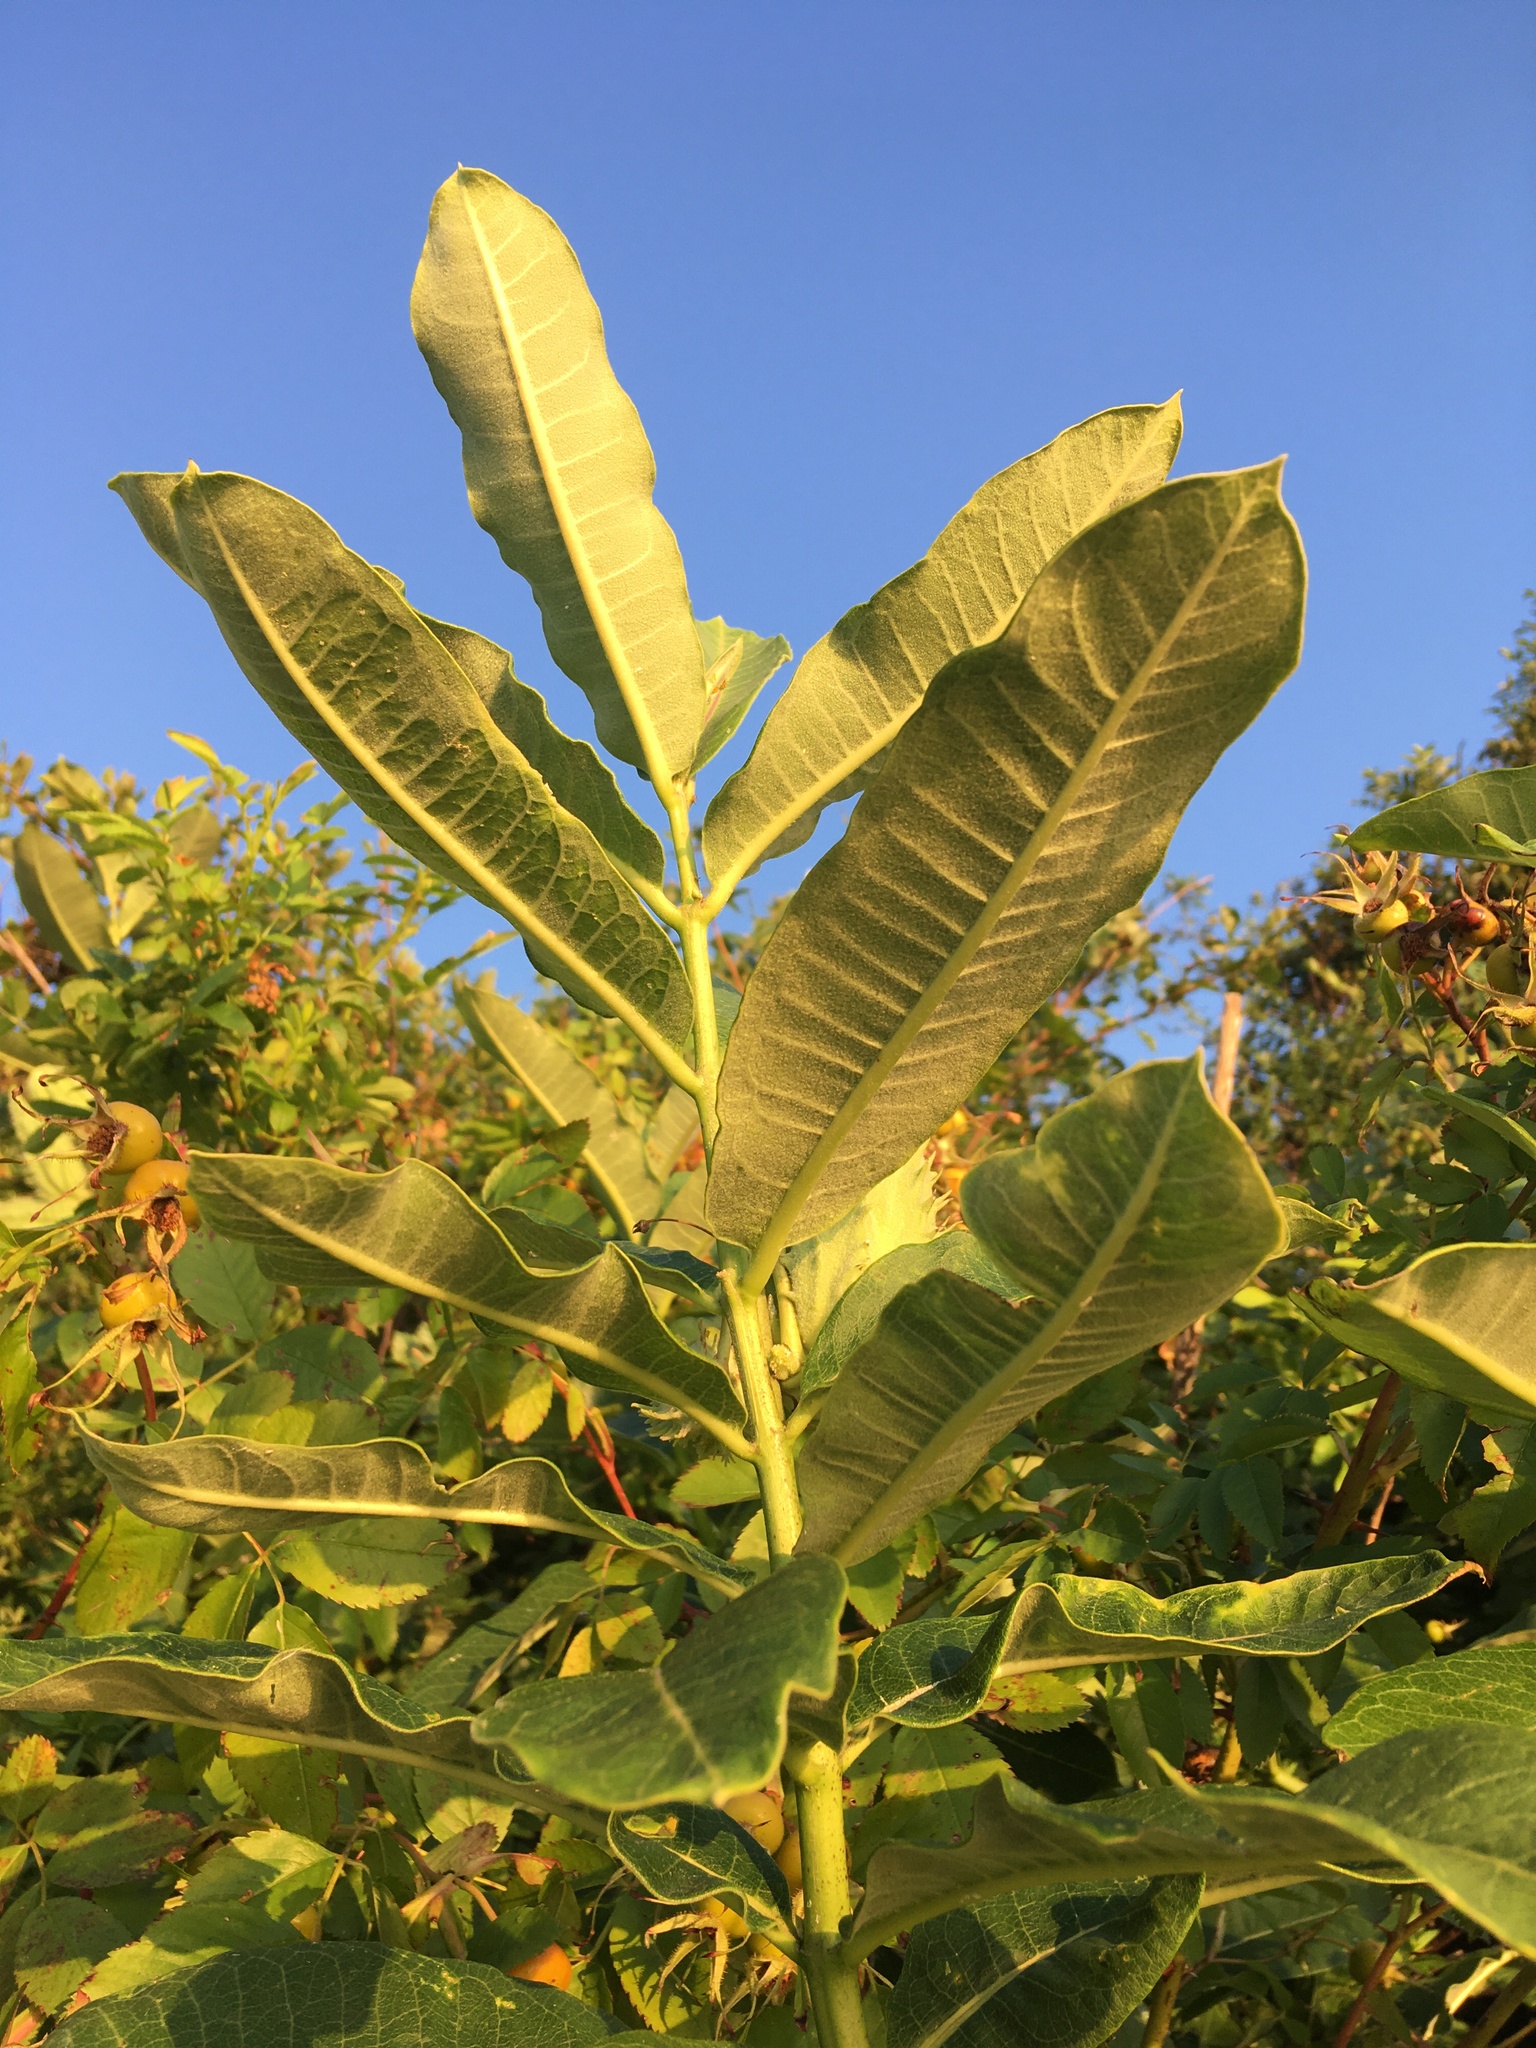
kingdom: Plantae
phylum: Tracheophyta
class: Magnoliopsida
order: Gentianales
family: Apocynaceae
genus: Asclepias
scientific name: Asclepias syriaca
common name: Common milkweed
